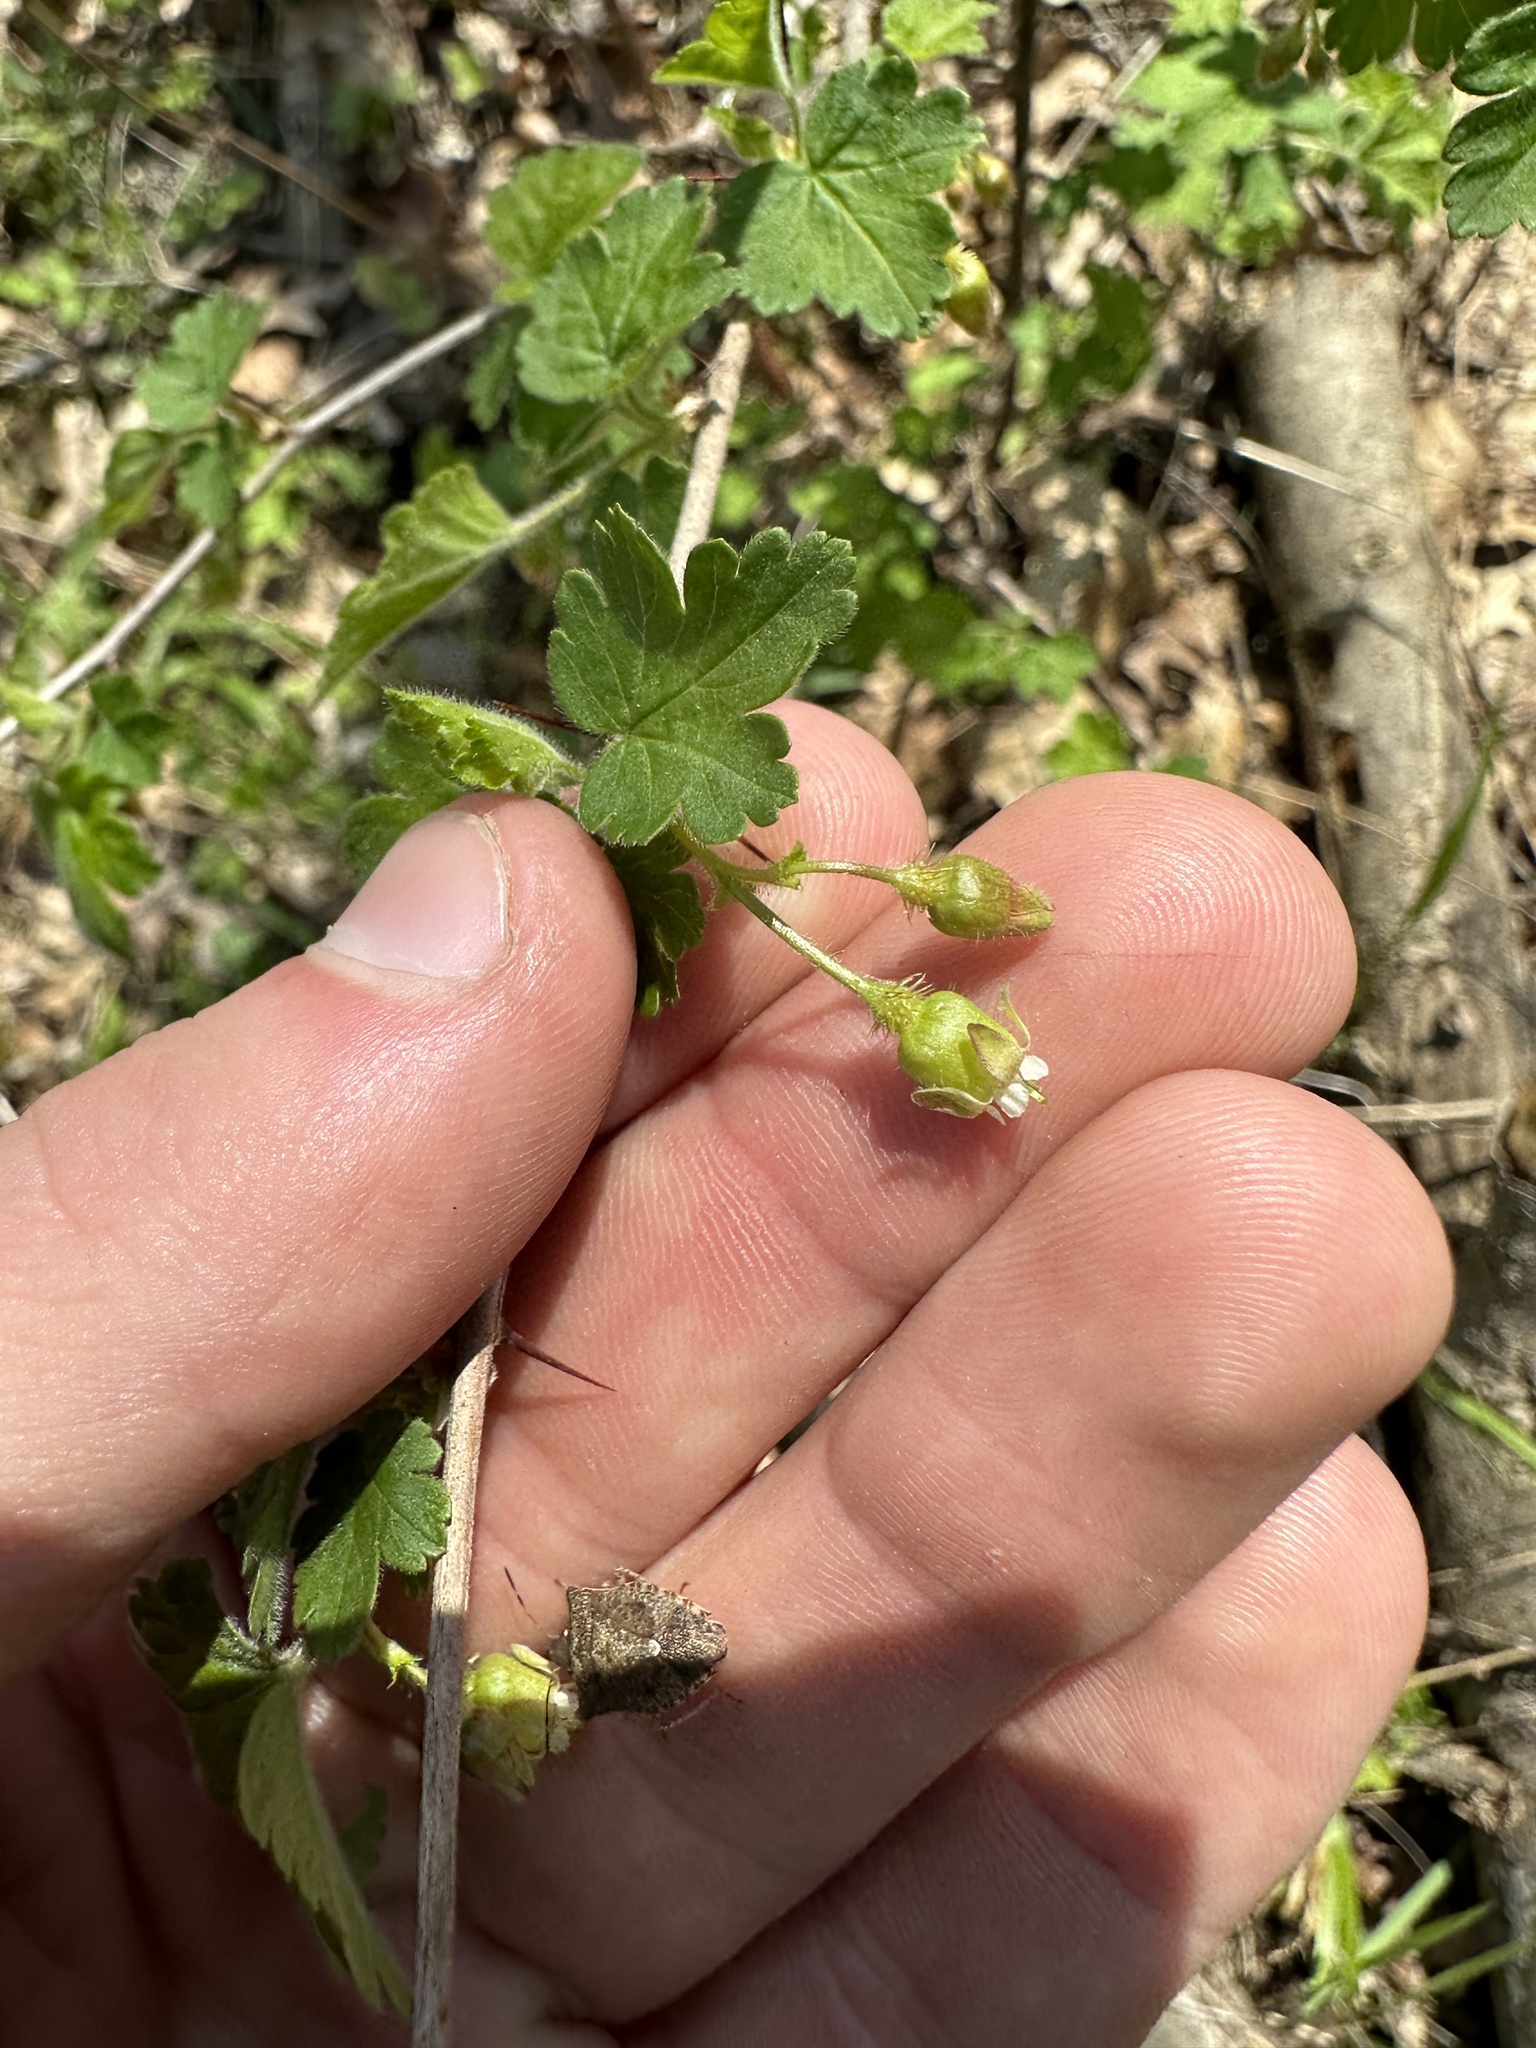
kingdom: Plantae
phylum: Tracheophyta
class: Magnoliopsida
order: Saxifragales
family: Grossulariaceae
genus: Ribes
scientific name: Ribes cynosbati
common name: American gooseberry
